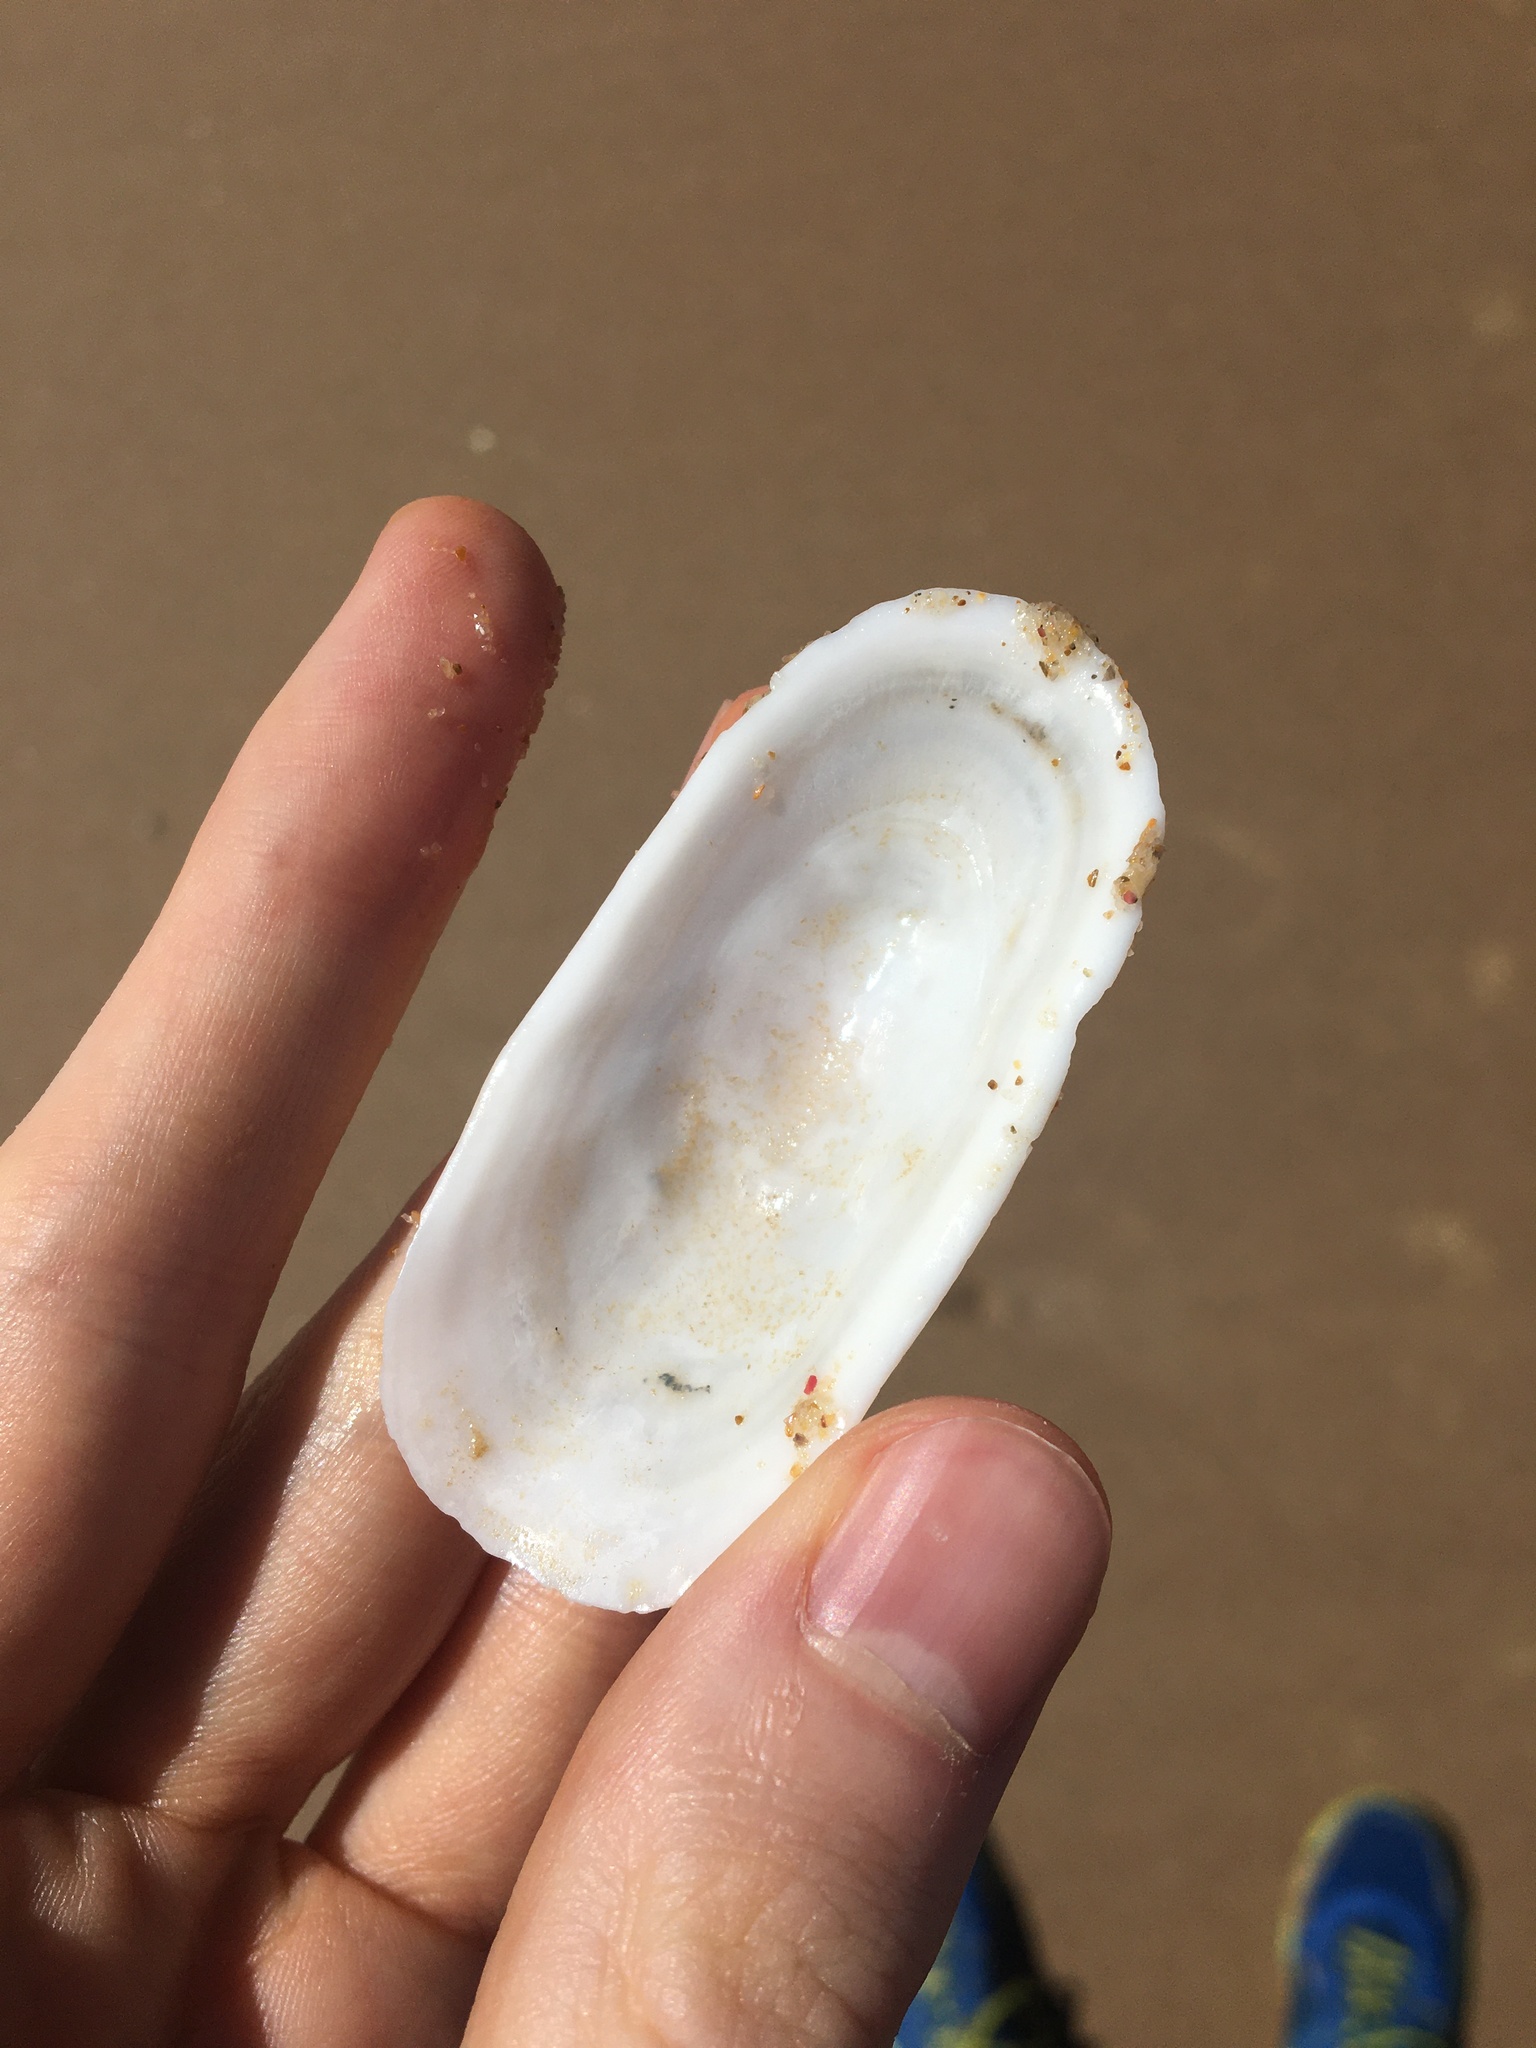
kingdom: Animalia
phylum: Mollusca
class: Gastropoda
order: Lepetellida
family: Fissurellidae
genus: Scutus
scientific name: Scutus antipodes
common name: Duckbill shell
